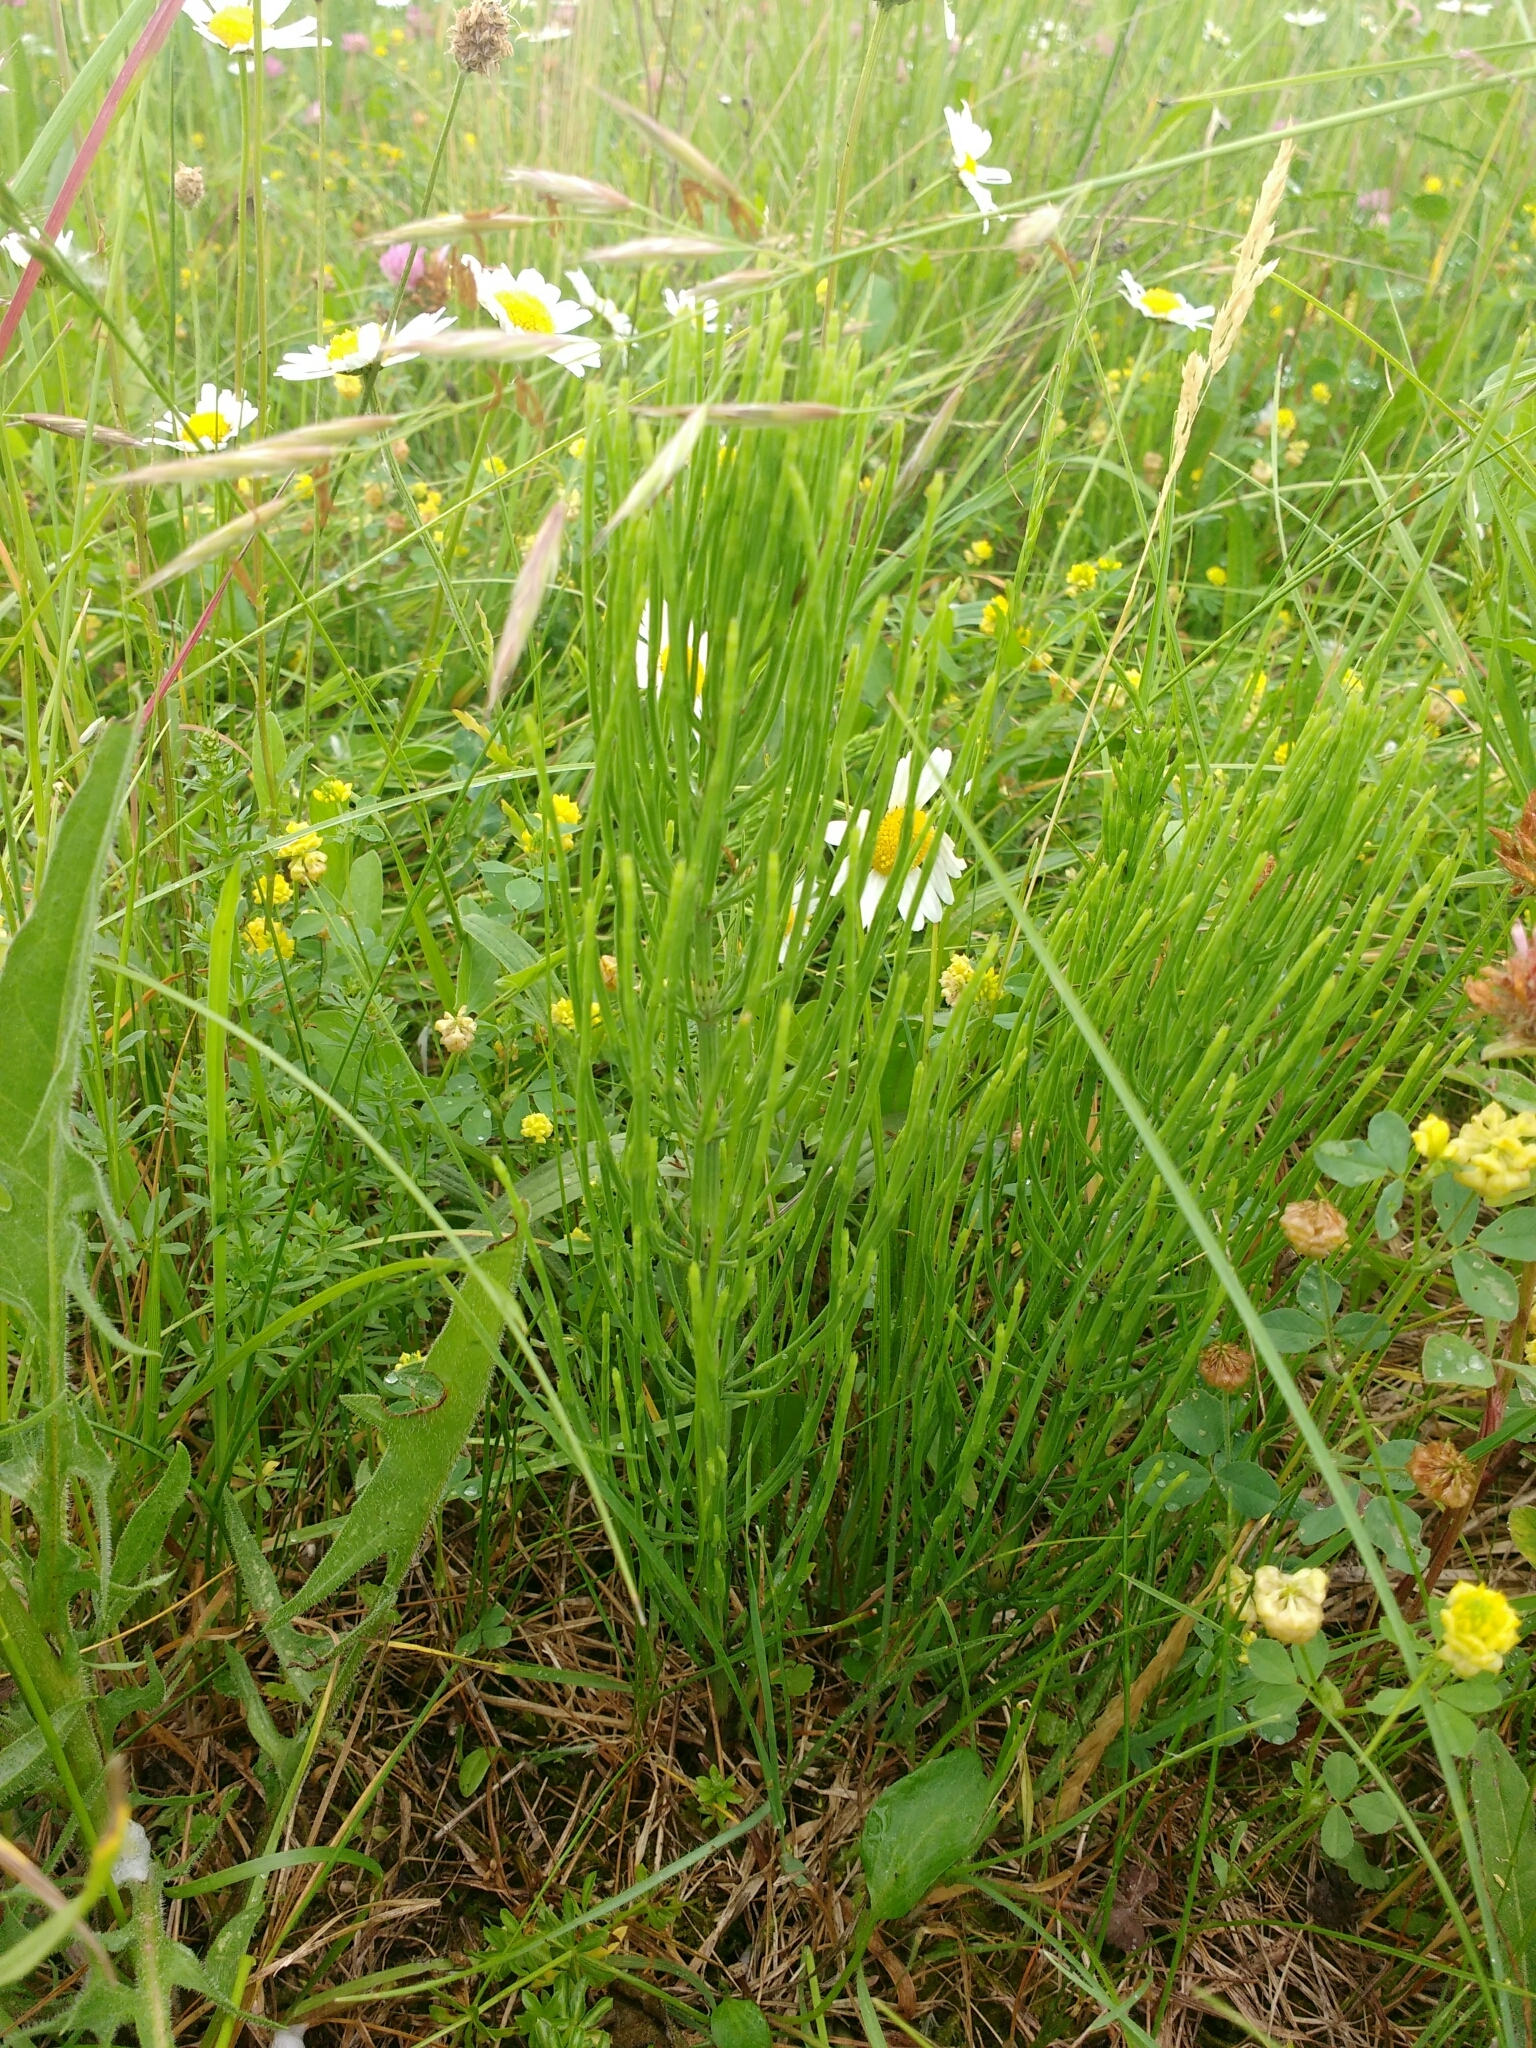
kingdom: Plantae
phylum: Tracheophyta
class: Polypodiopsida
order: Equisetales
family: Equisetaceae
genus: Equisetum
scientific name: Equisetum arvense
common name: Field horsetail
